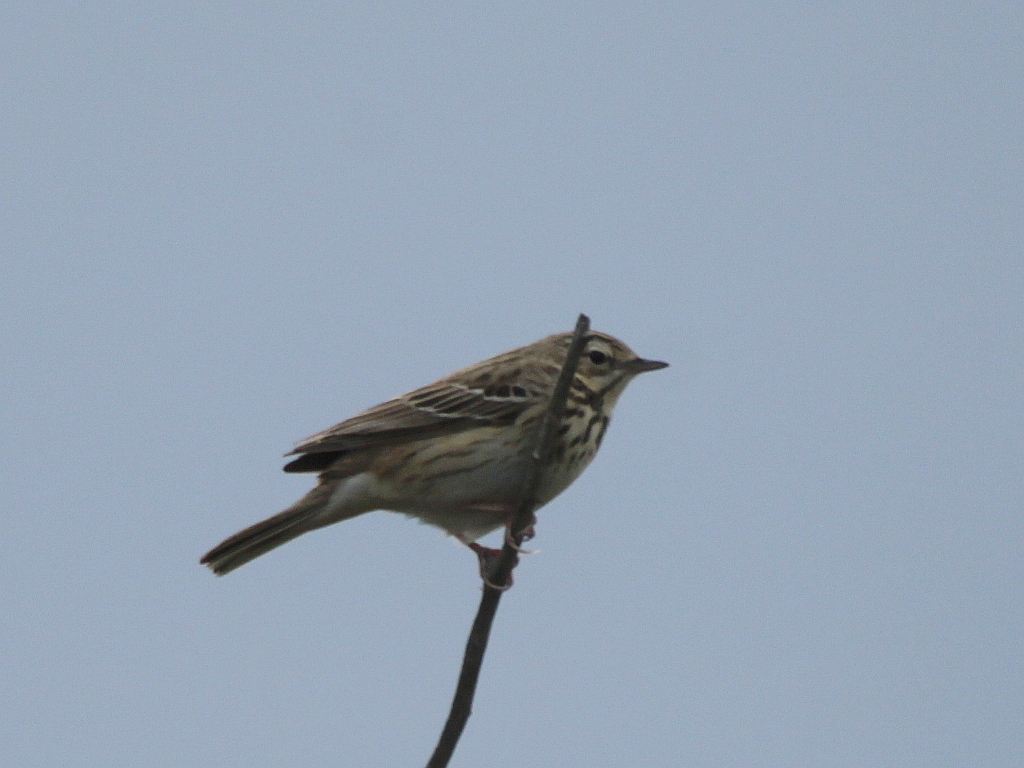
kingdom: Animalia
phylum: Chordata
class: Aves
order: Passeriformes
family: Motacillidae
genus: Anthus
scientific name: Anthus trivialis
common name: Tree pipit
